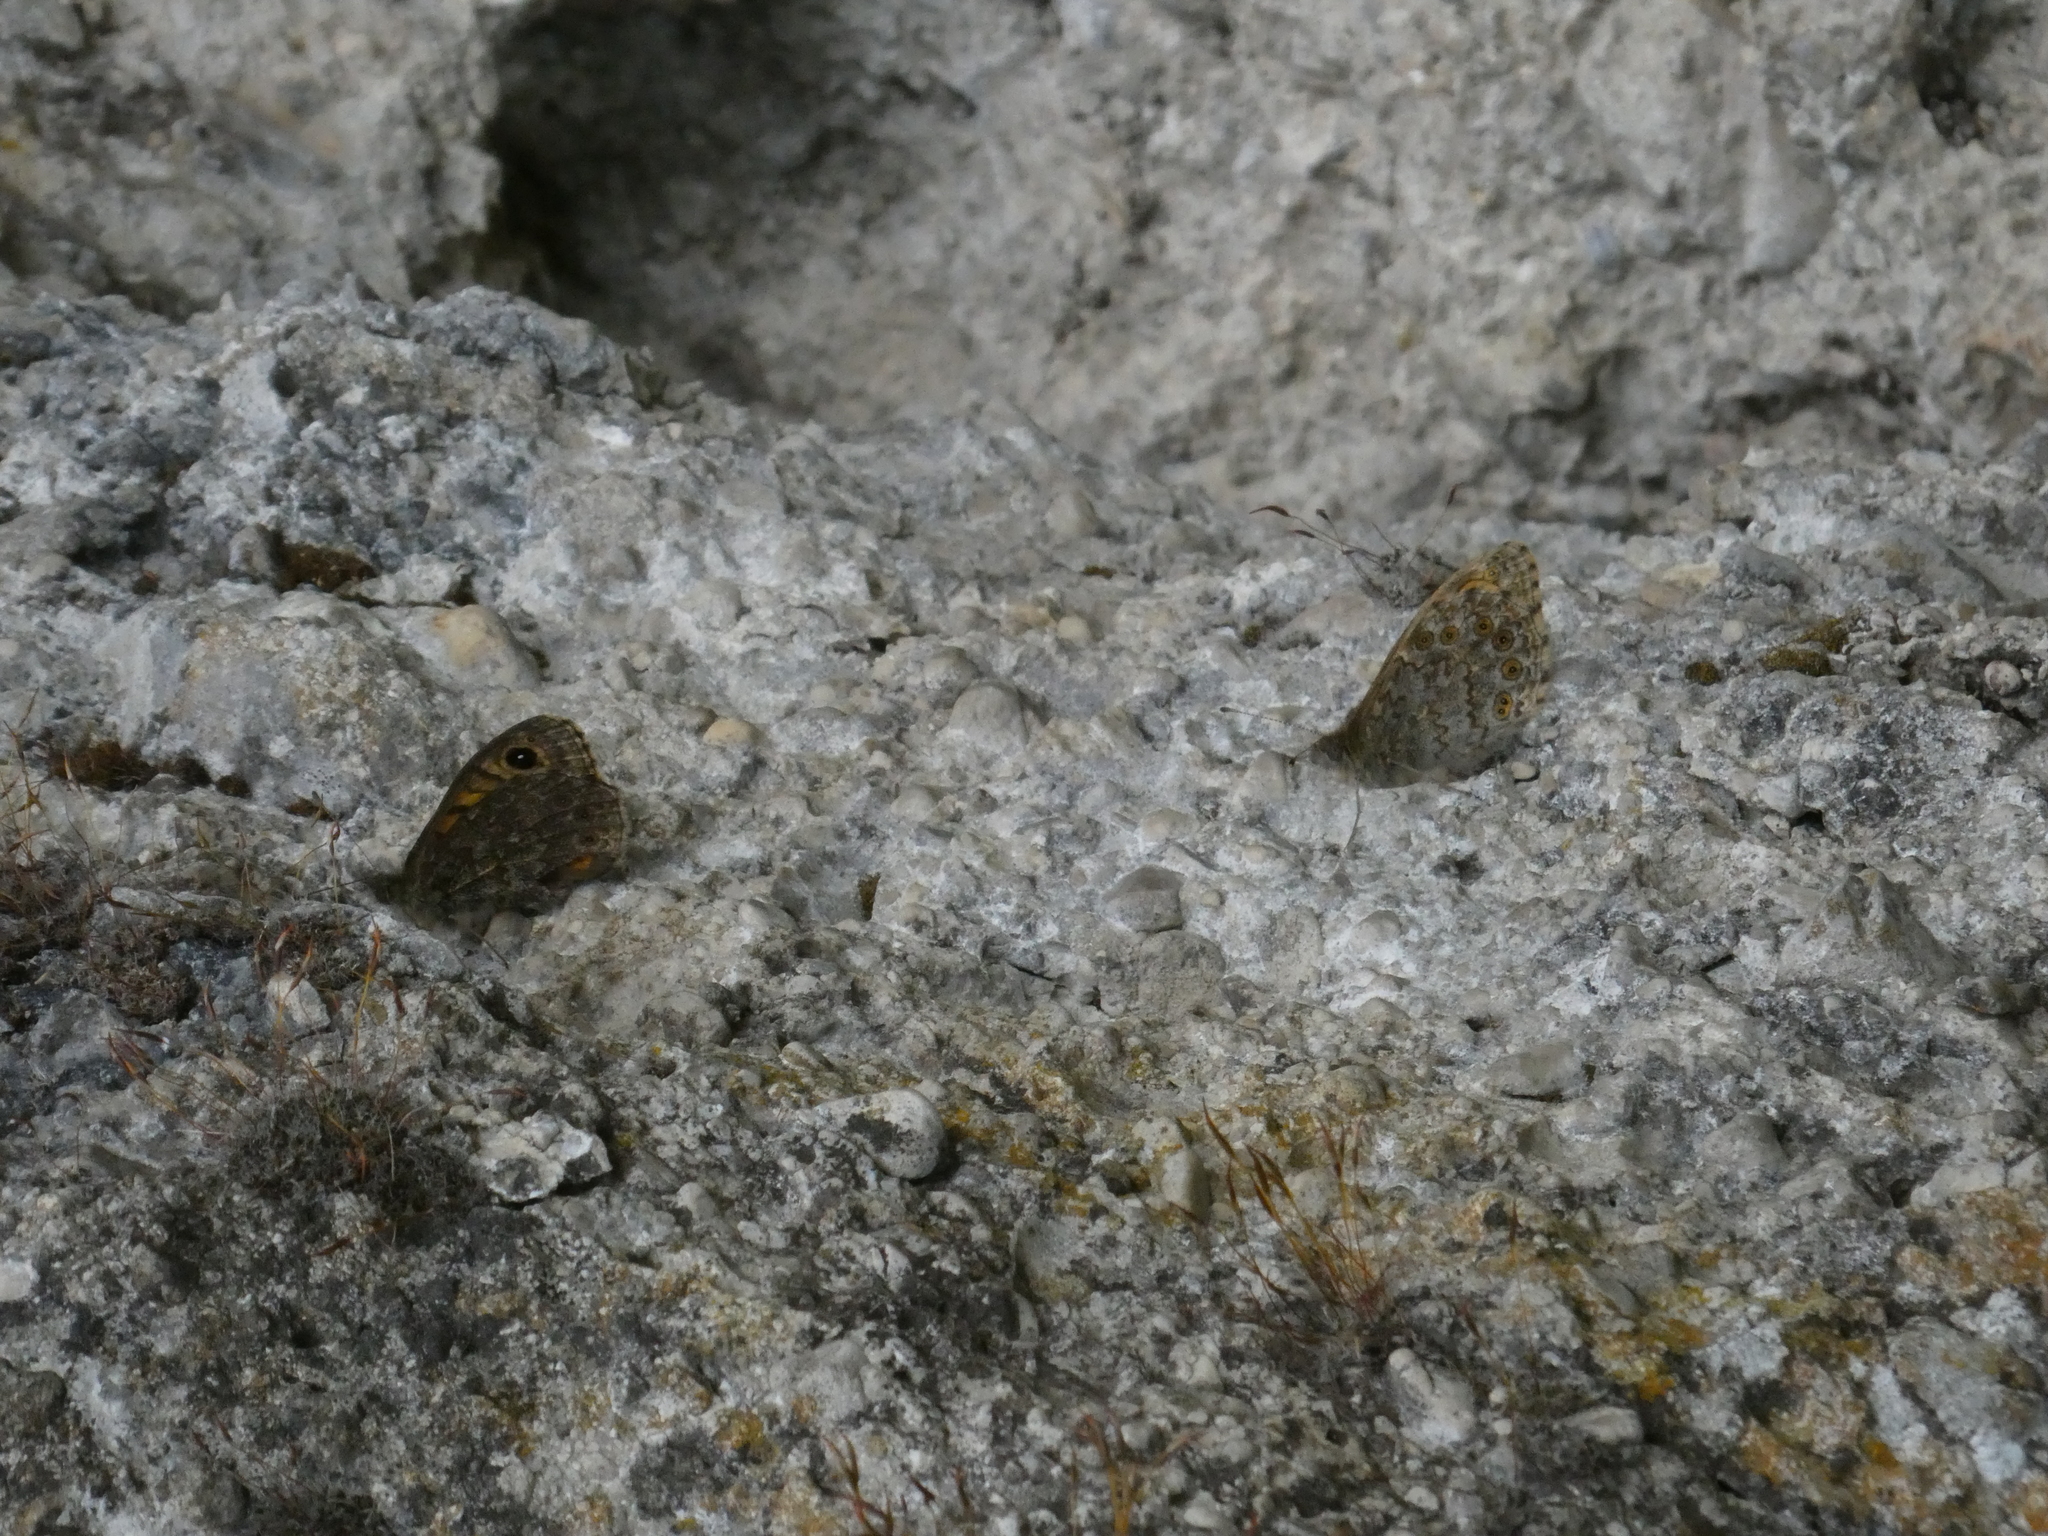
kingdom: Animalia
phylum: Arthropoda
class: Insecta
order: Lepidoptera
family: Nymphalidae
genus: Pararge
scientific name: Pararge Lasiommata megera
